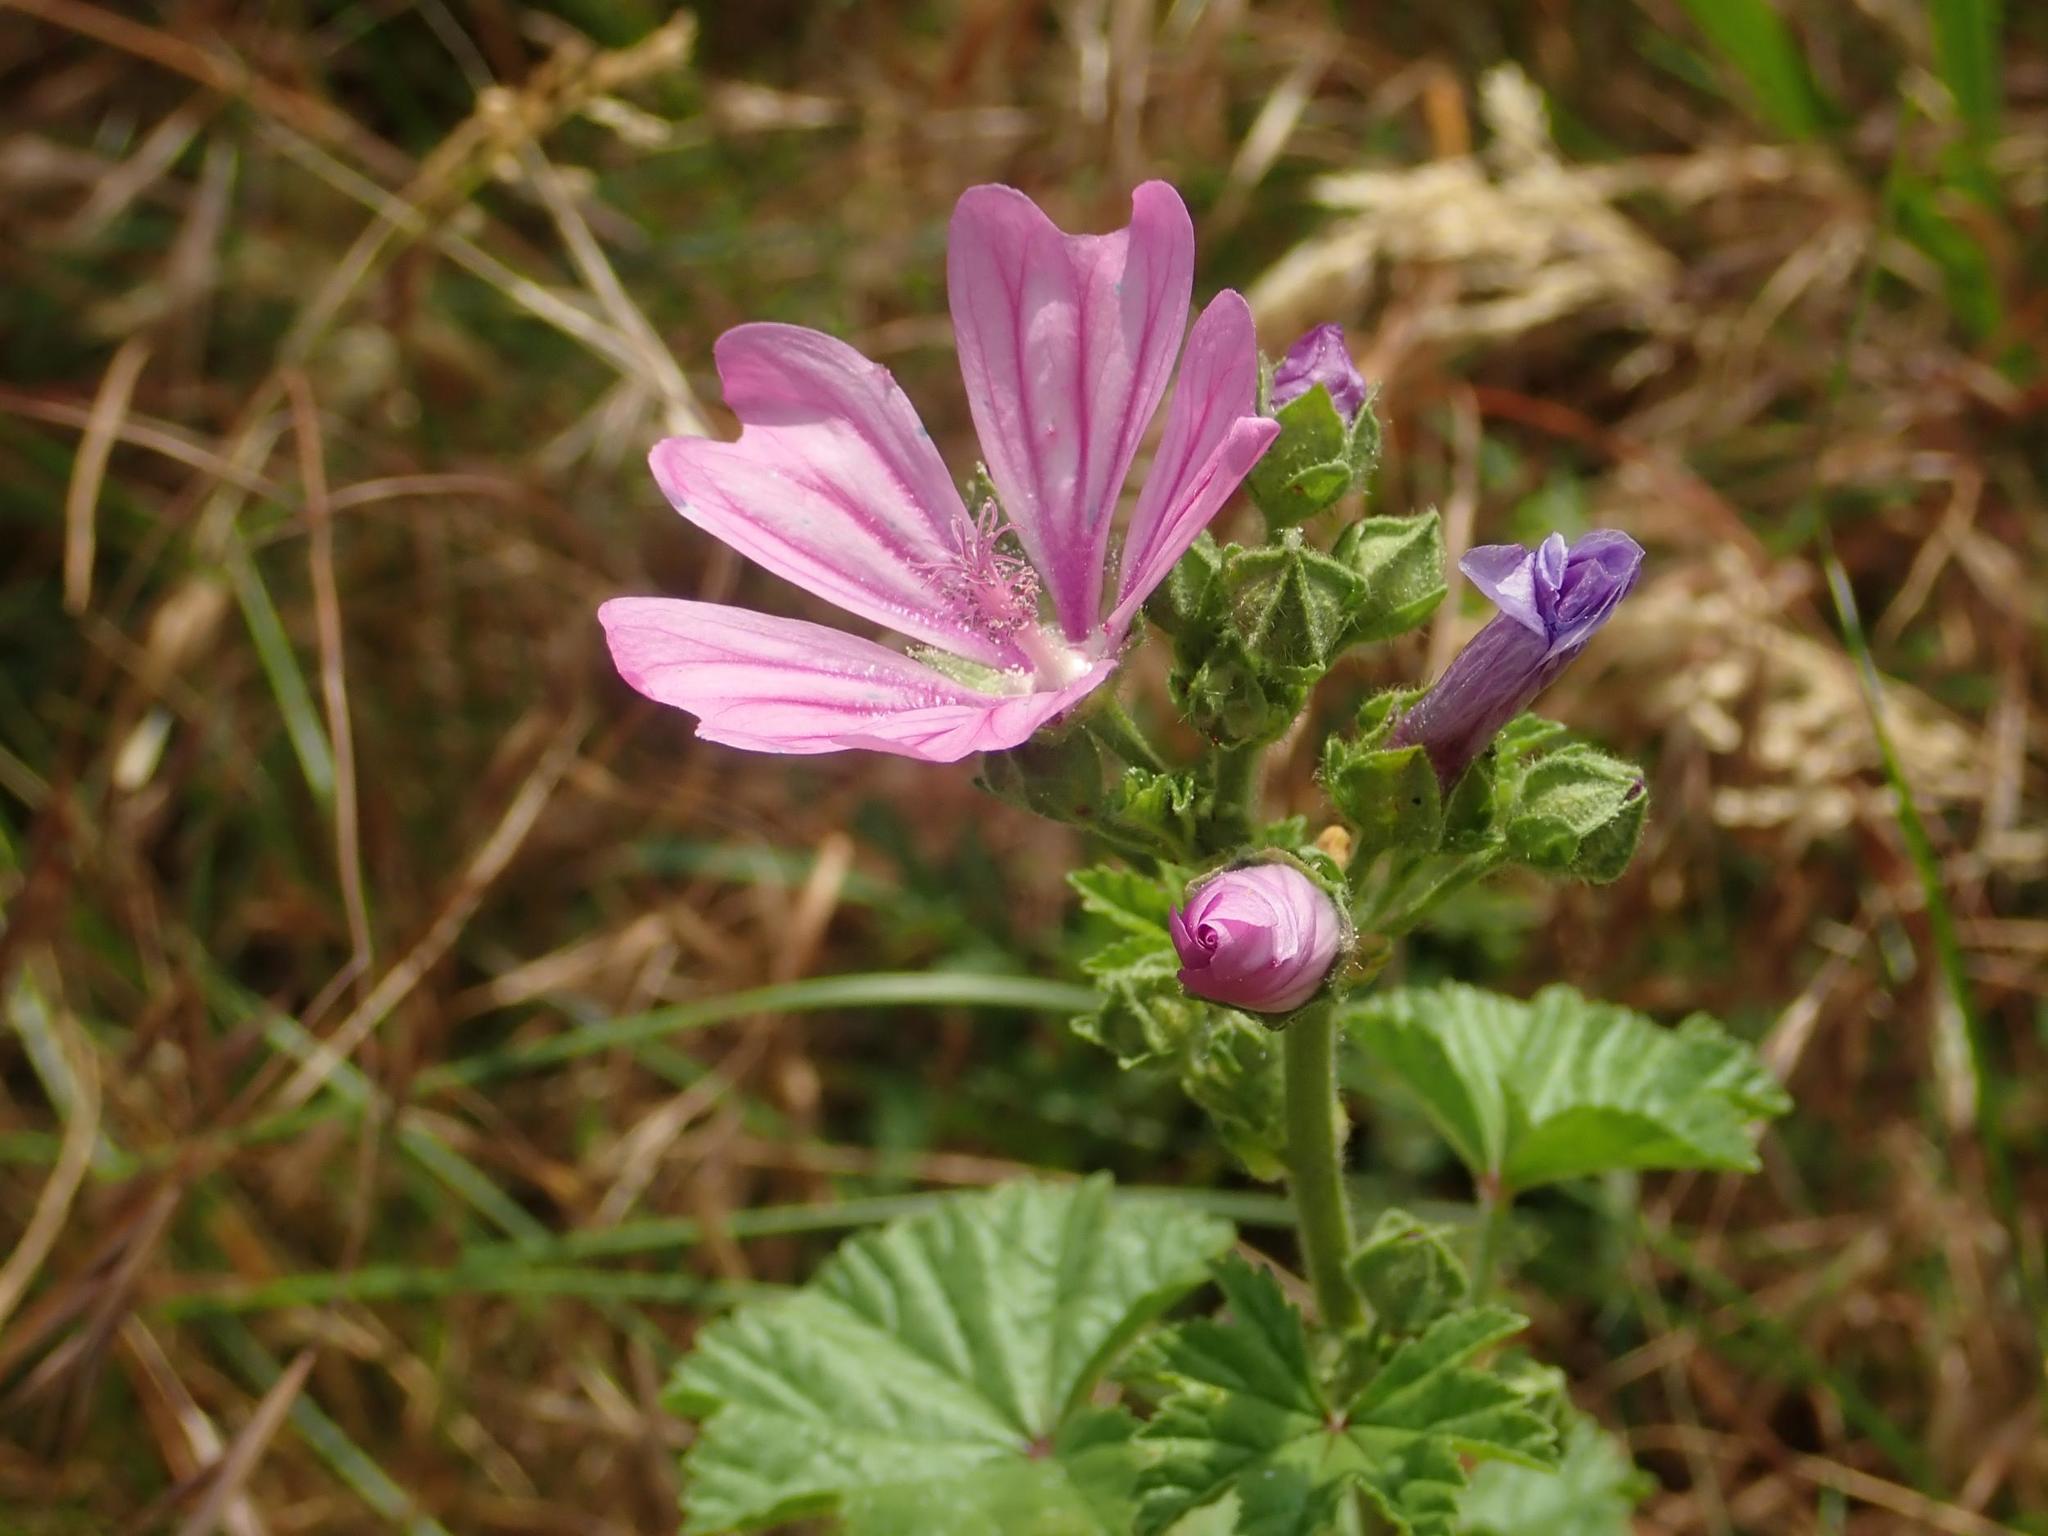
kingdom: Plantae
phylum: Tracheophyta
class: Magnoliopsida
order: Malvales
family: Malvaceae
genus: Malva
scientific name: Malva sylvestris
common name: Common mallow
